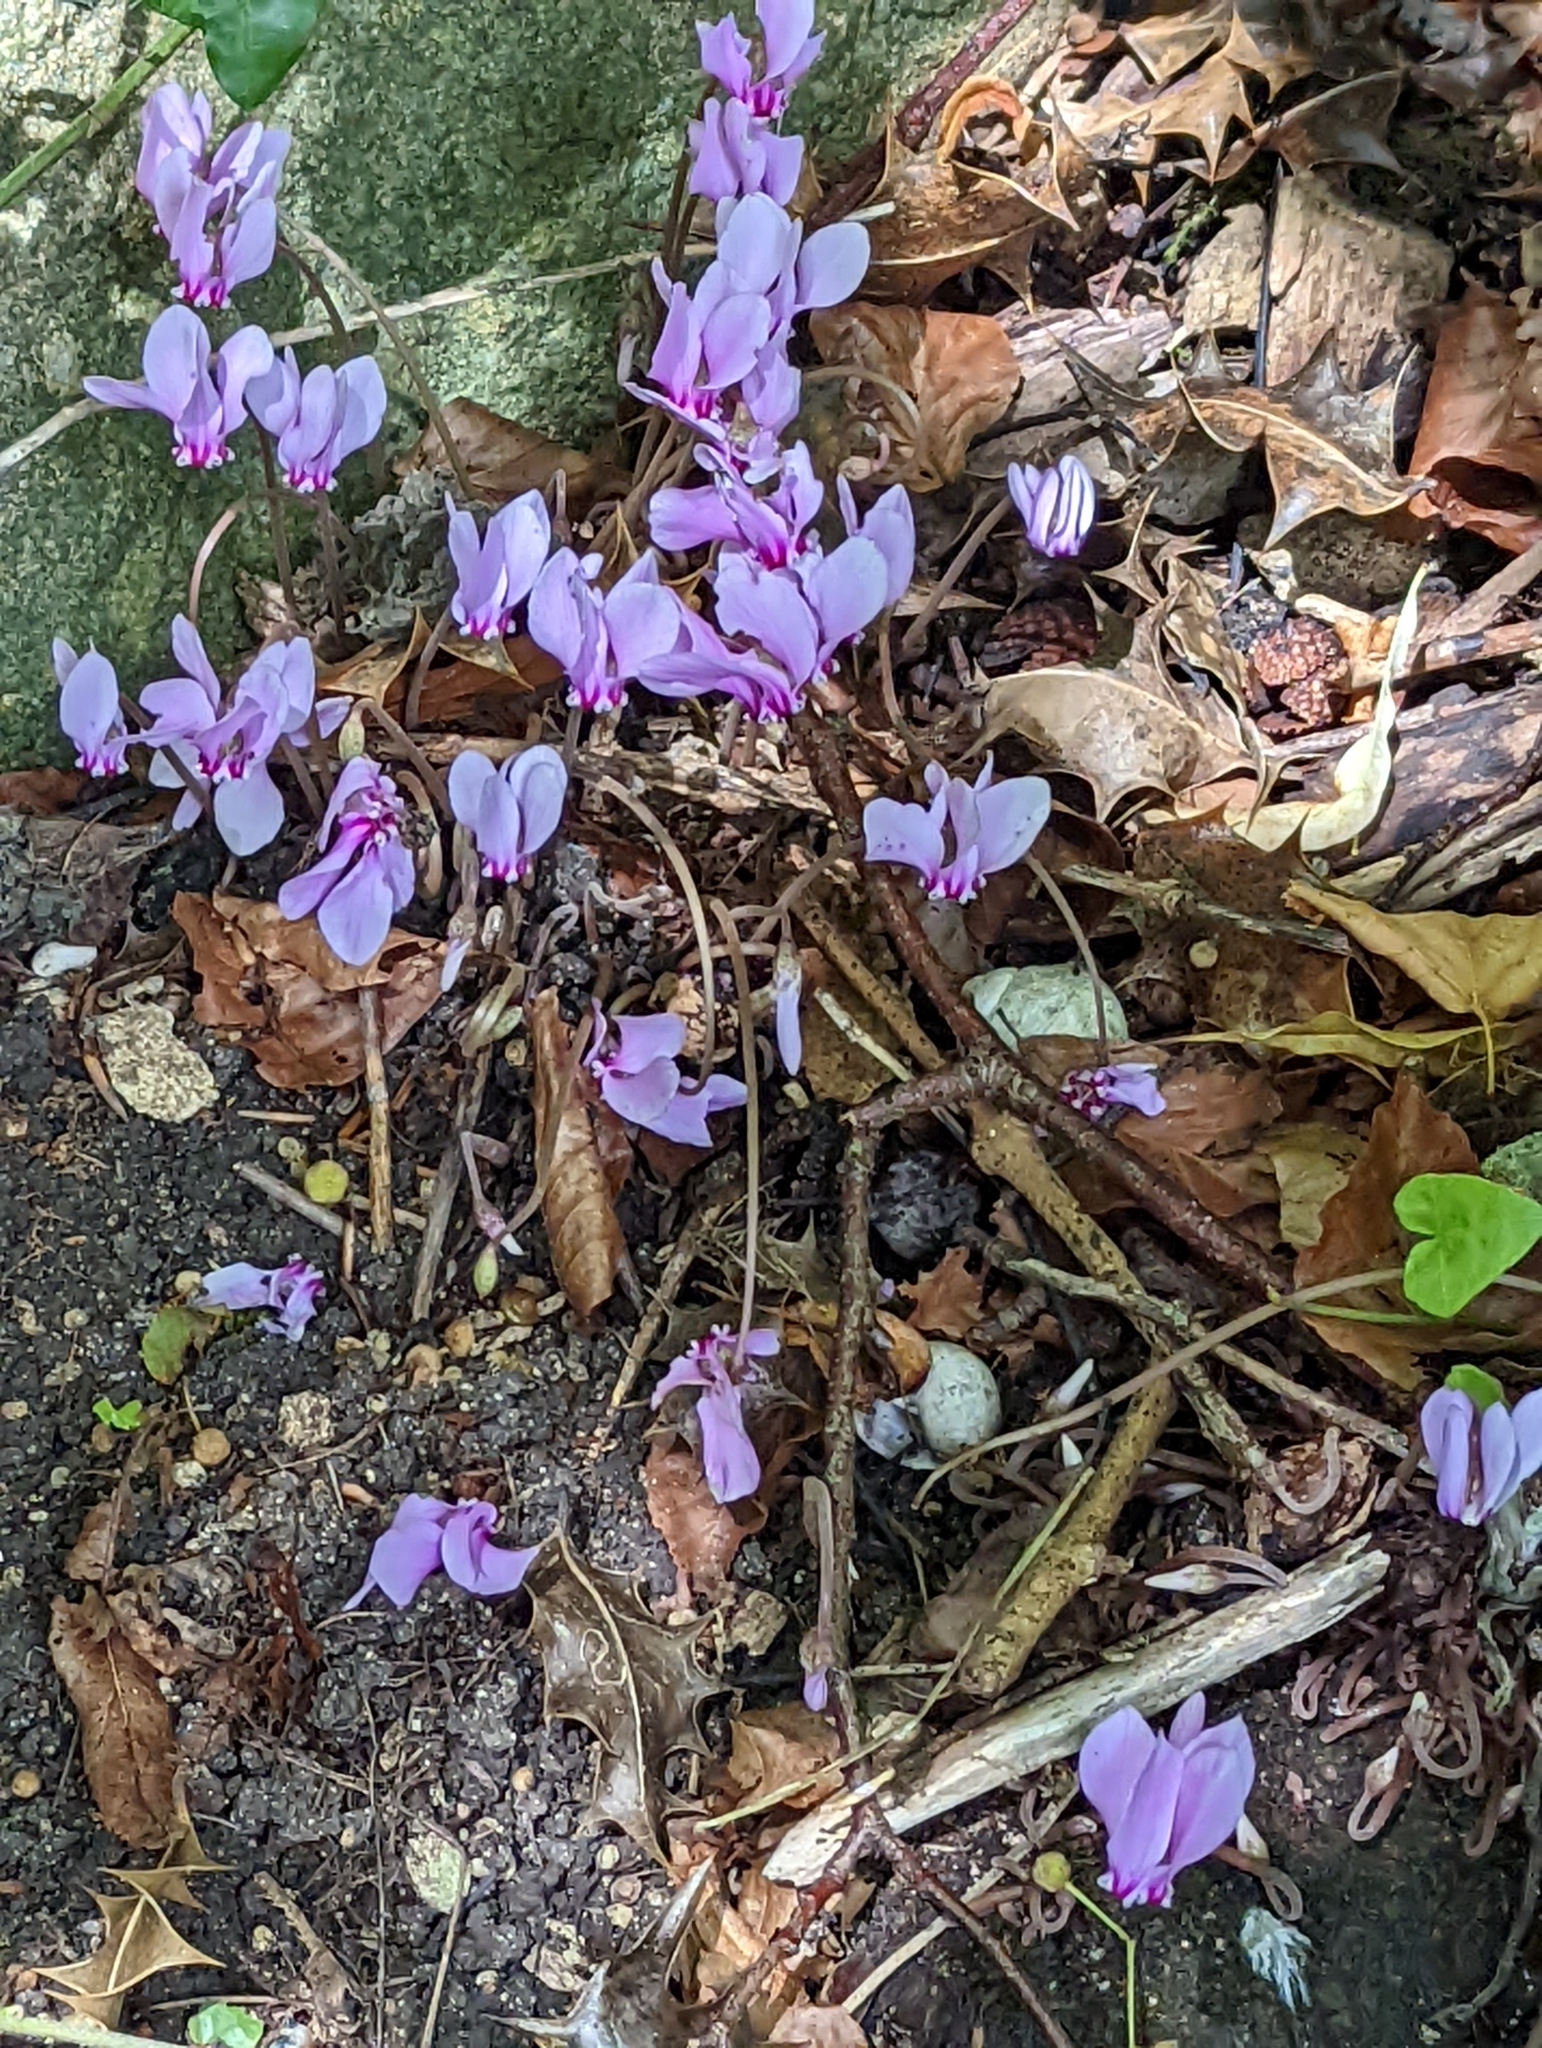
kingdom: Plantae
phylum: Tracheophyta
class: Magnoliopsida
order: Ericales
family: Primulaceae
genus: Cyclamen
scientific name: Cyclamen hederifolium
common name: Sowbread
